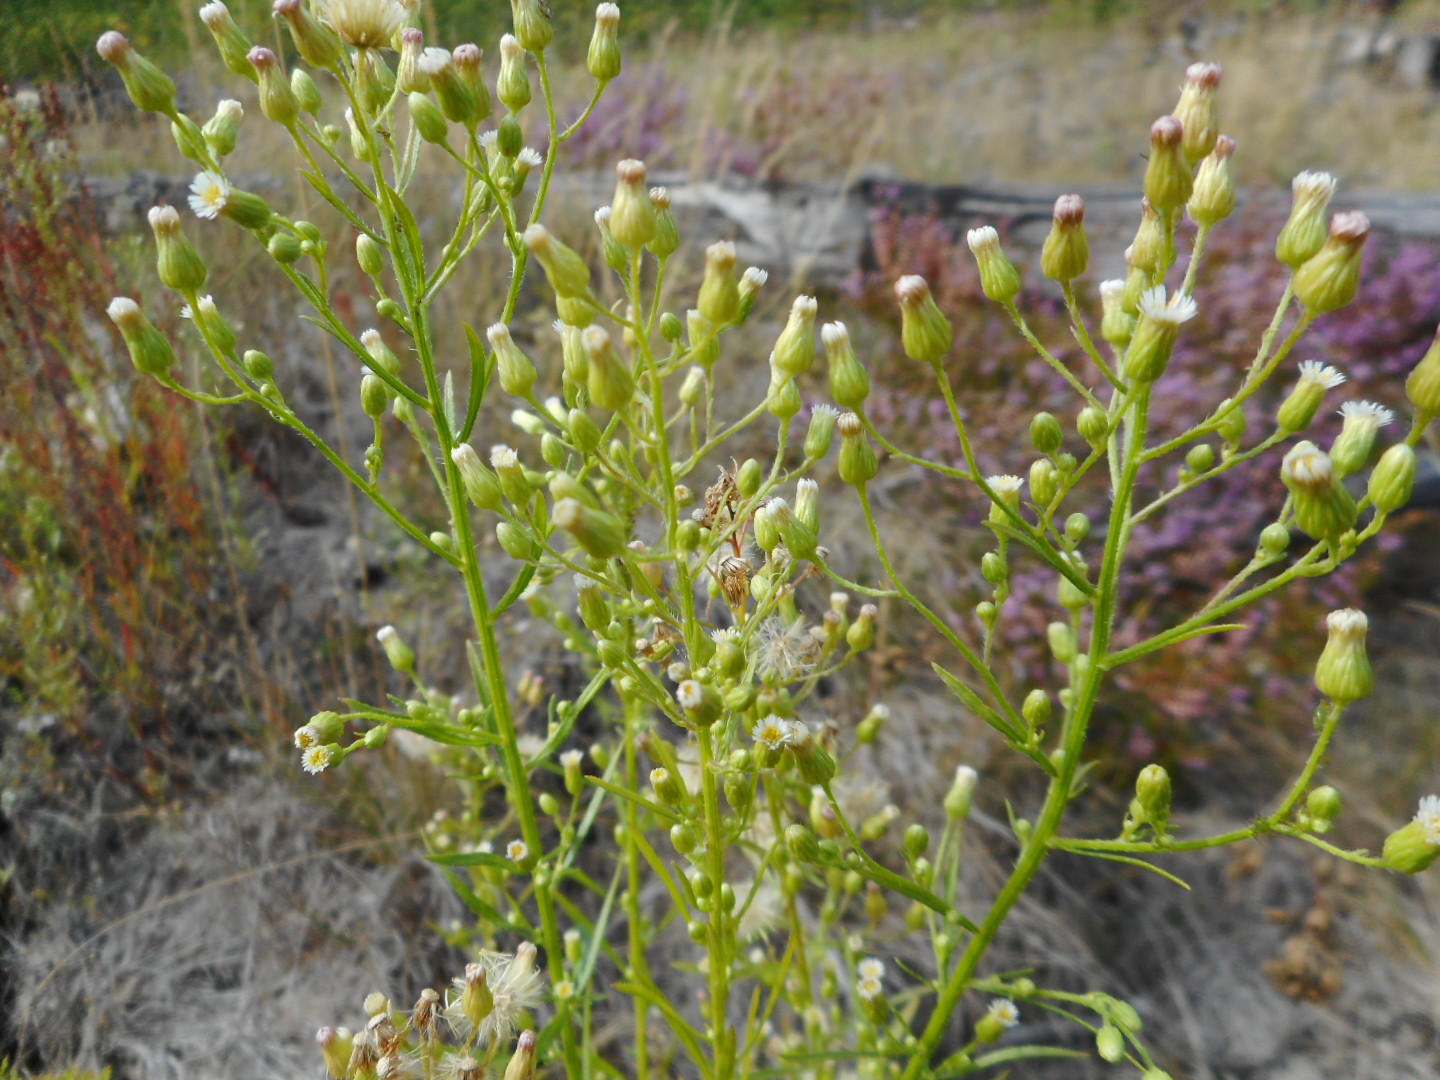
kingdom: Plantae
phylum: Tracheophyta
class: Magnoliopsida
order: Asterales
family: Asteraceae
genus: Erigeron
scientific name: Erigeron canadensis
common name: Canadian fleabane
